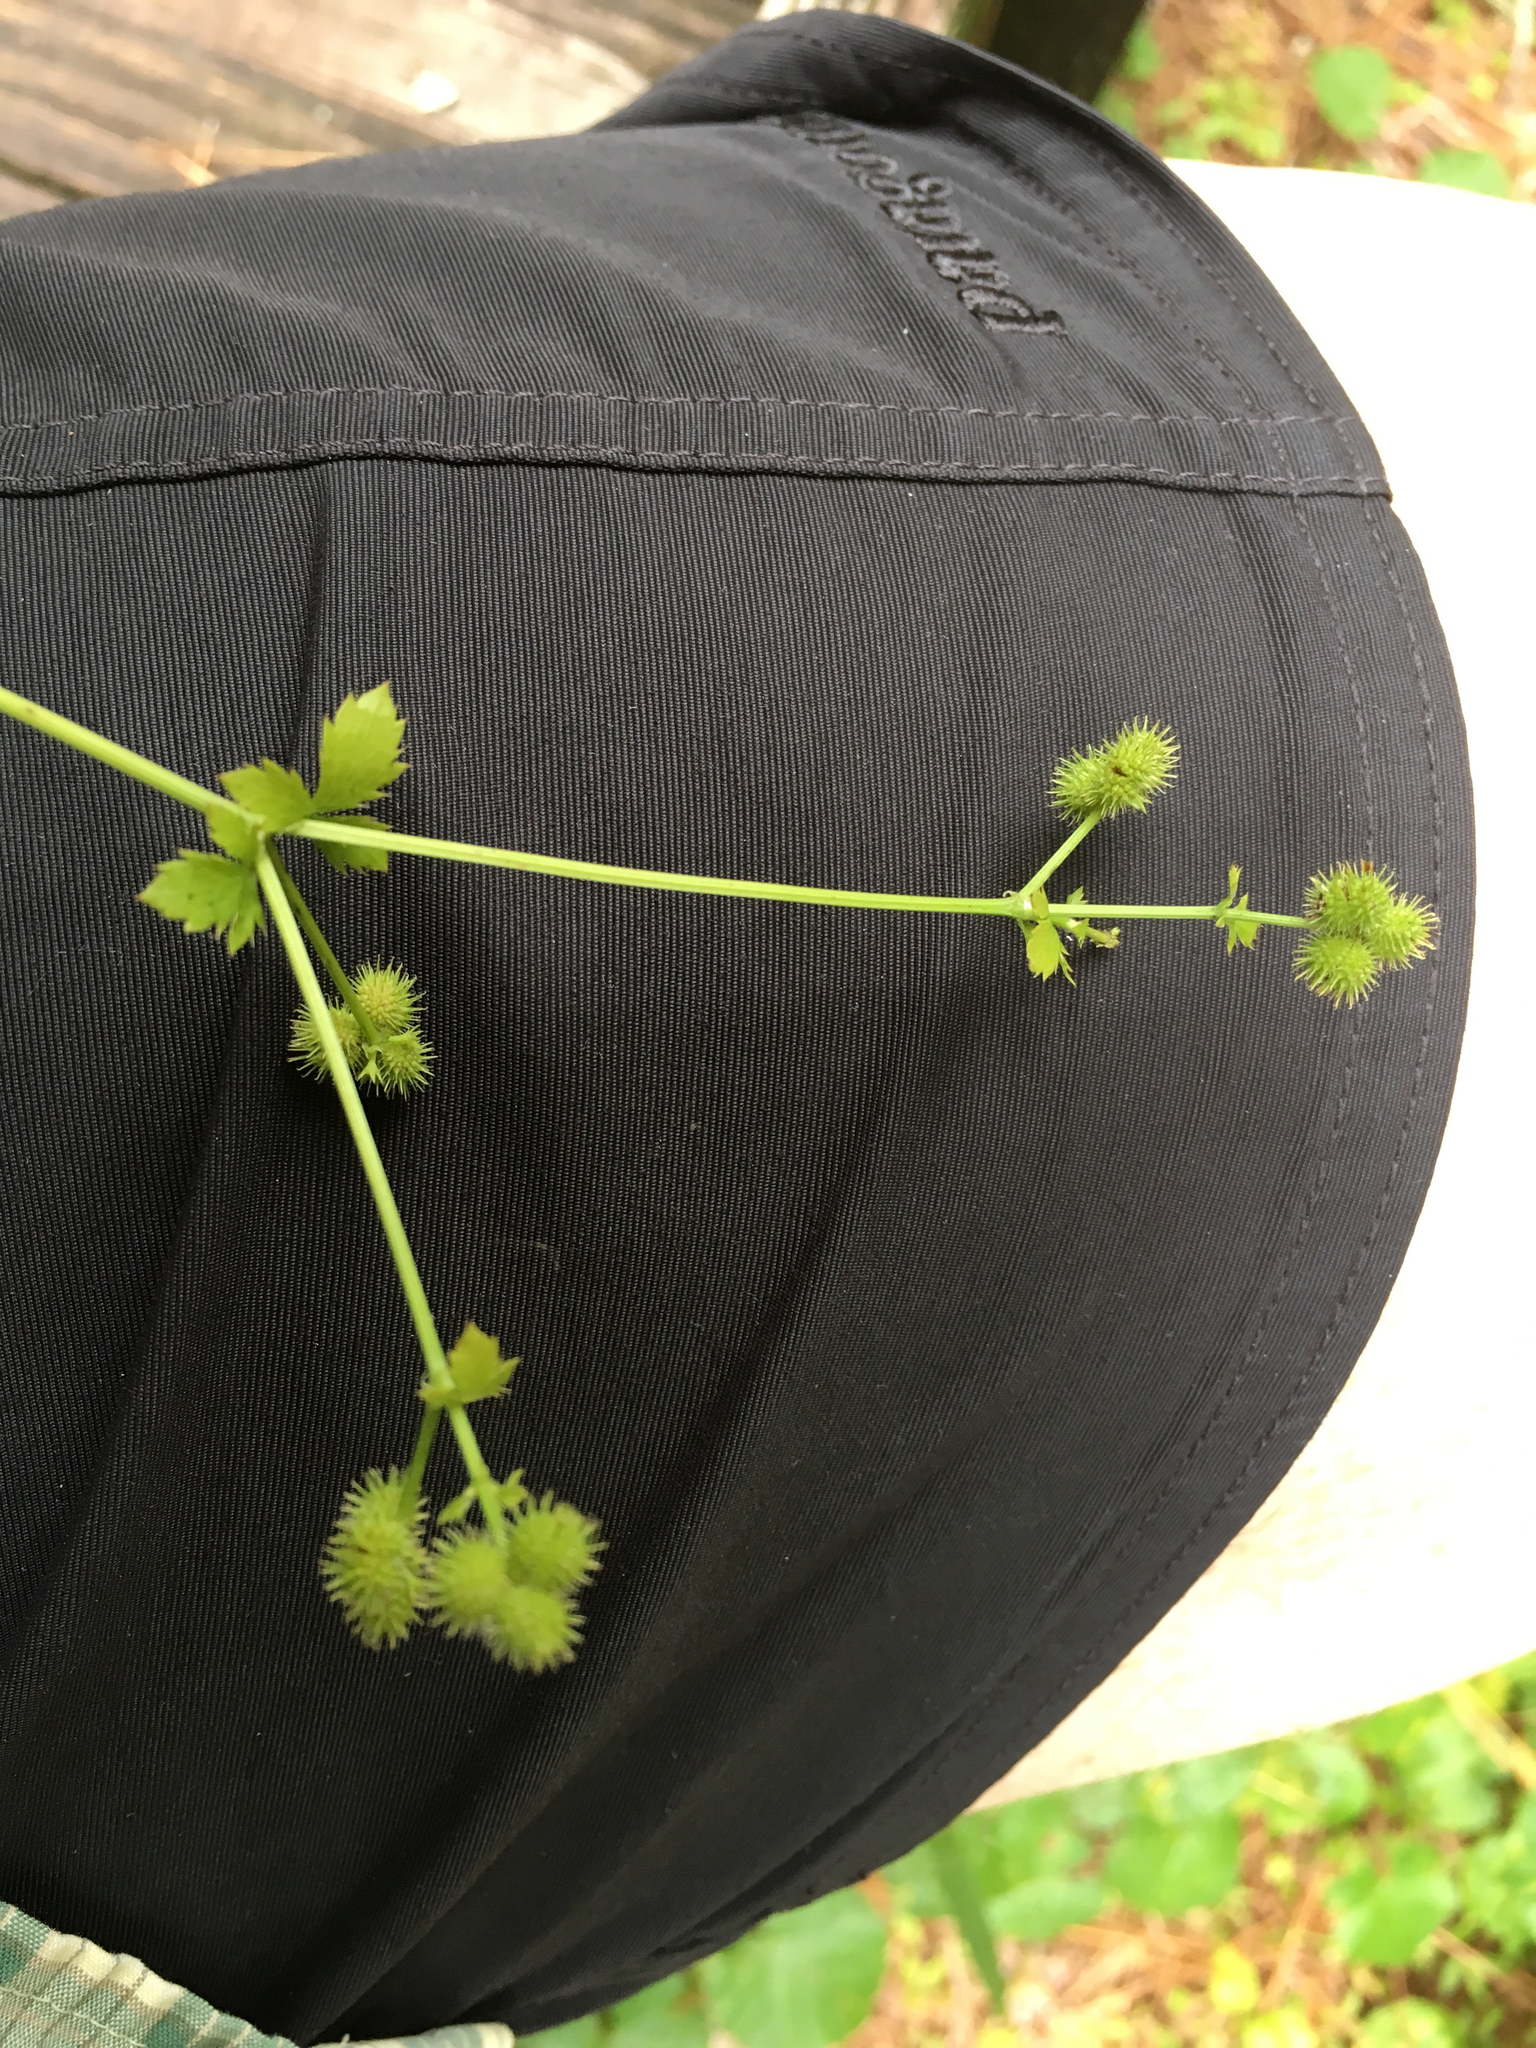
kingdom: Plantae
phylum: Tracheophyta
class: Magnoliopsida
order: Apiales
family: Apiaceae
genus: Sanicula
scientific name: Sanicula canadensis
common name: Canada sanicle
